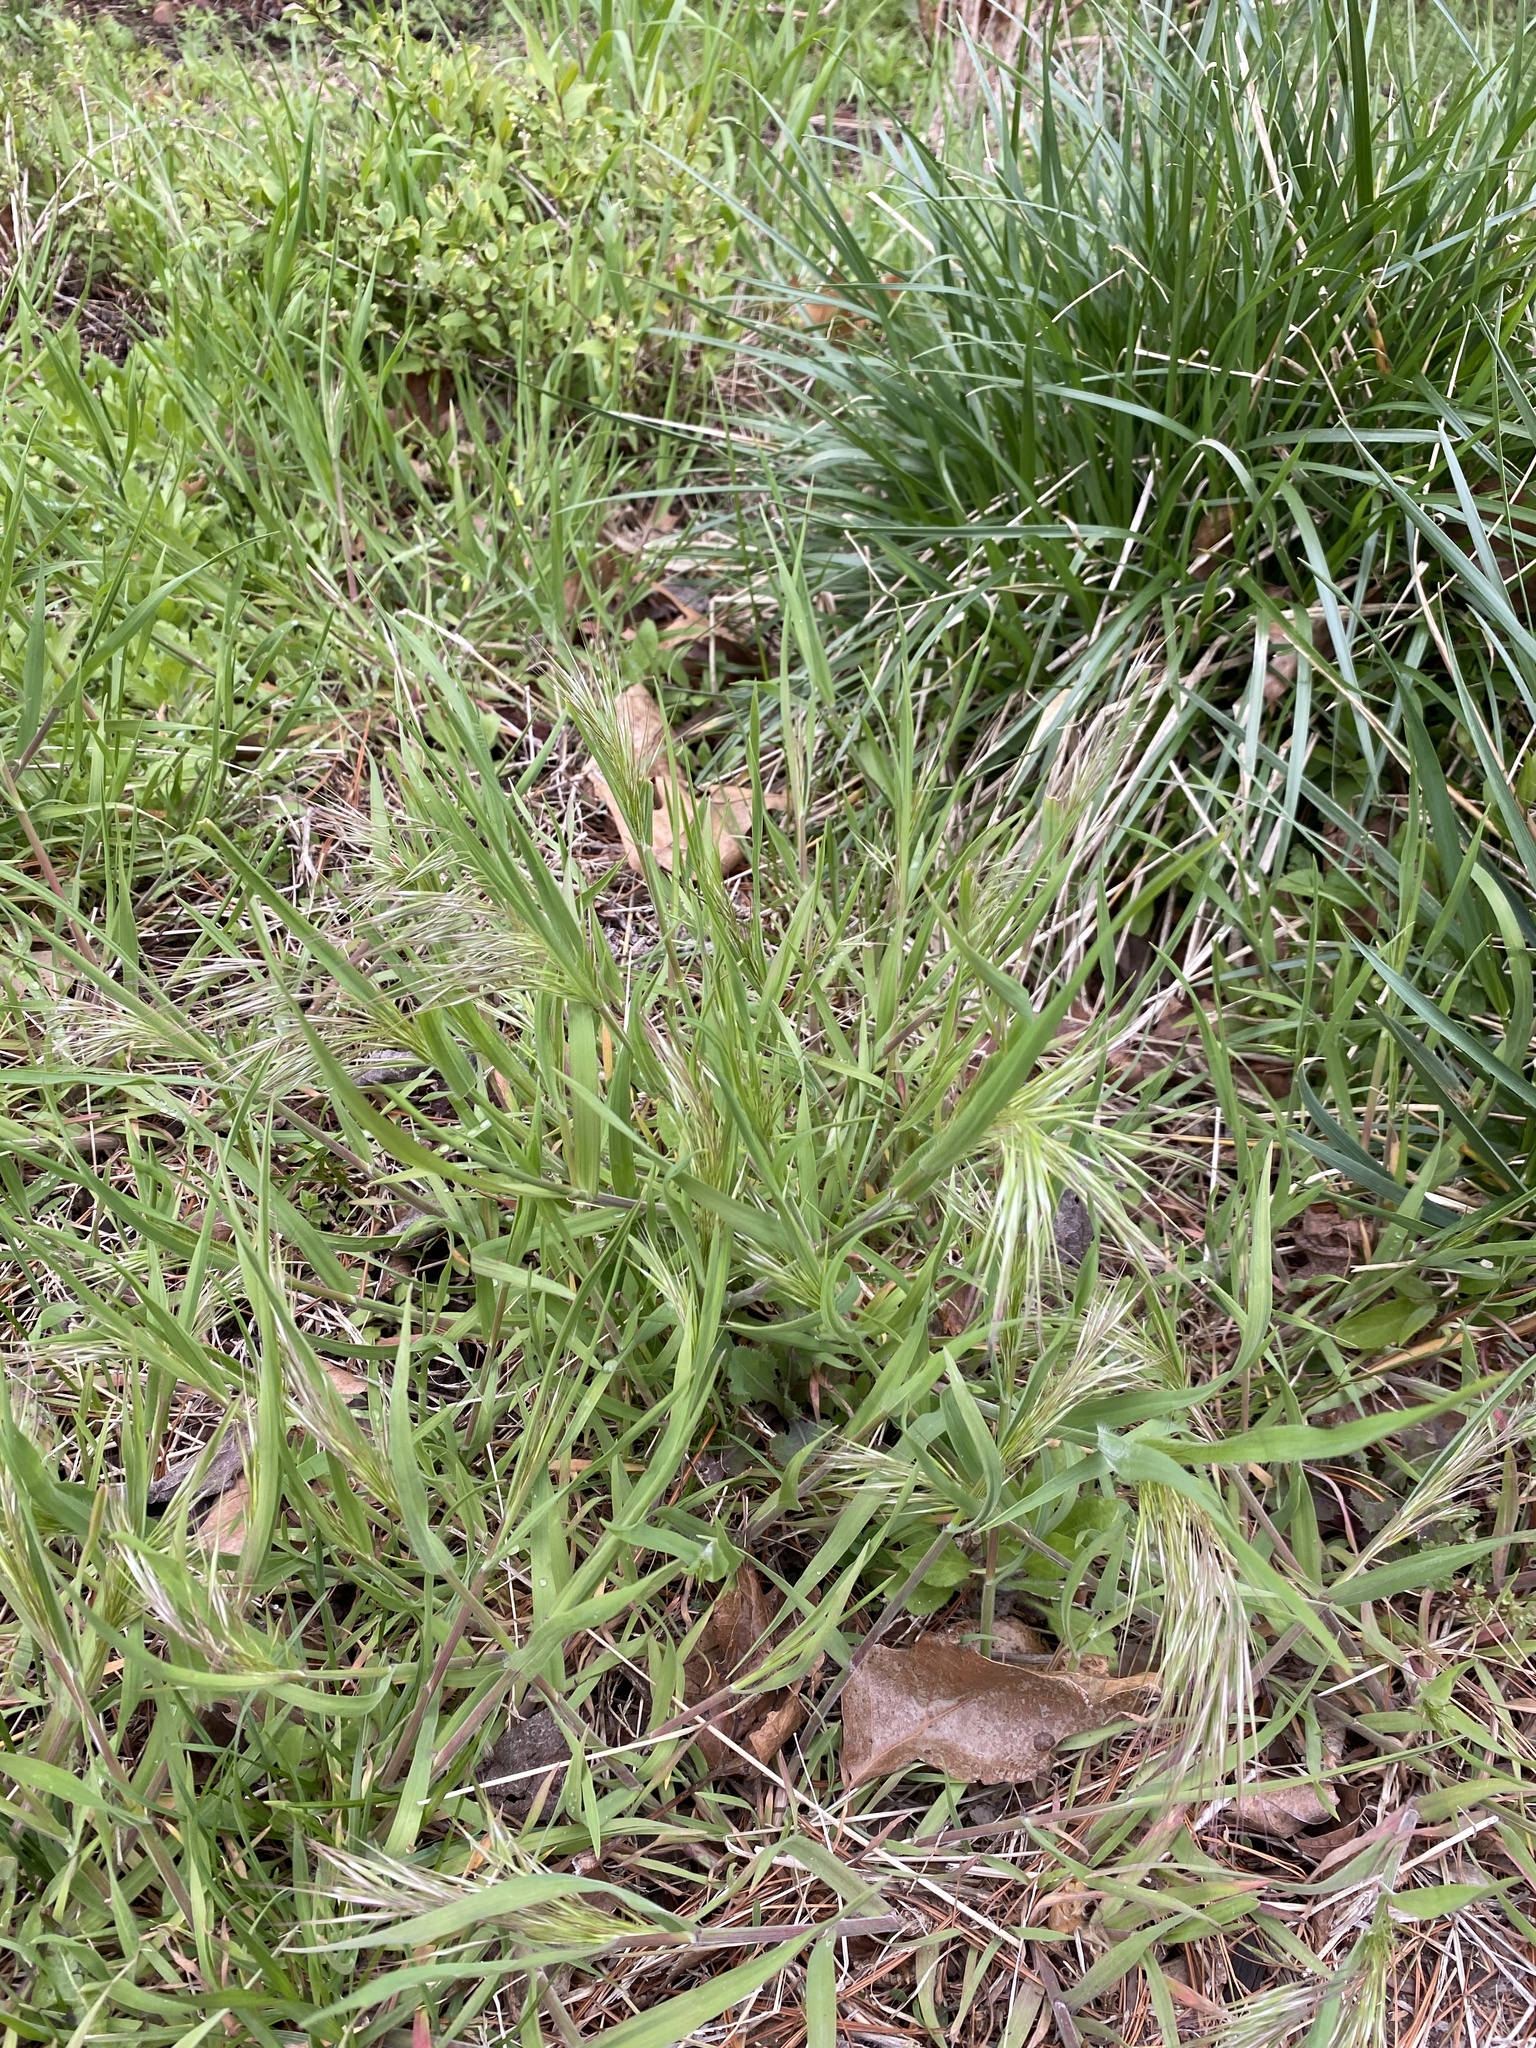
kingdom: Plantae
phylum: Tracheophyta
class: Liliopsida
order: Poales
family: Poaceae
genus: Bromus
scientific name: Bromus tectorum
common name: Cheatgrass
